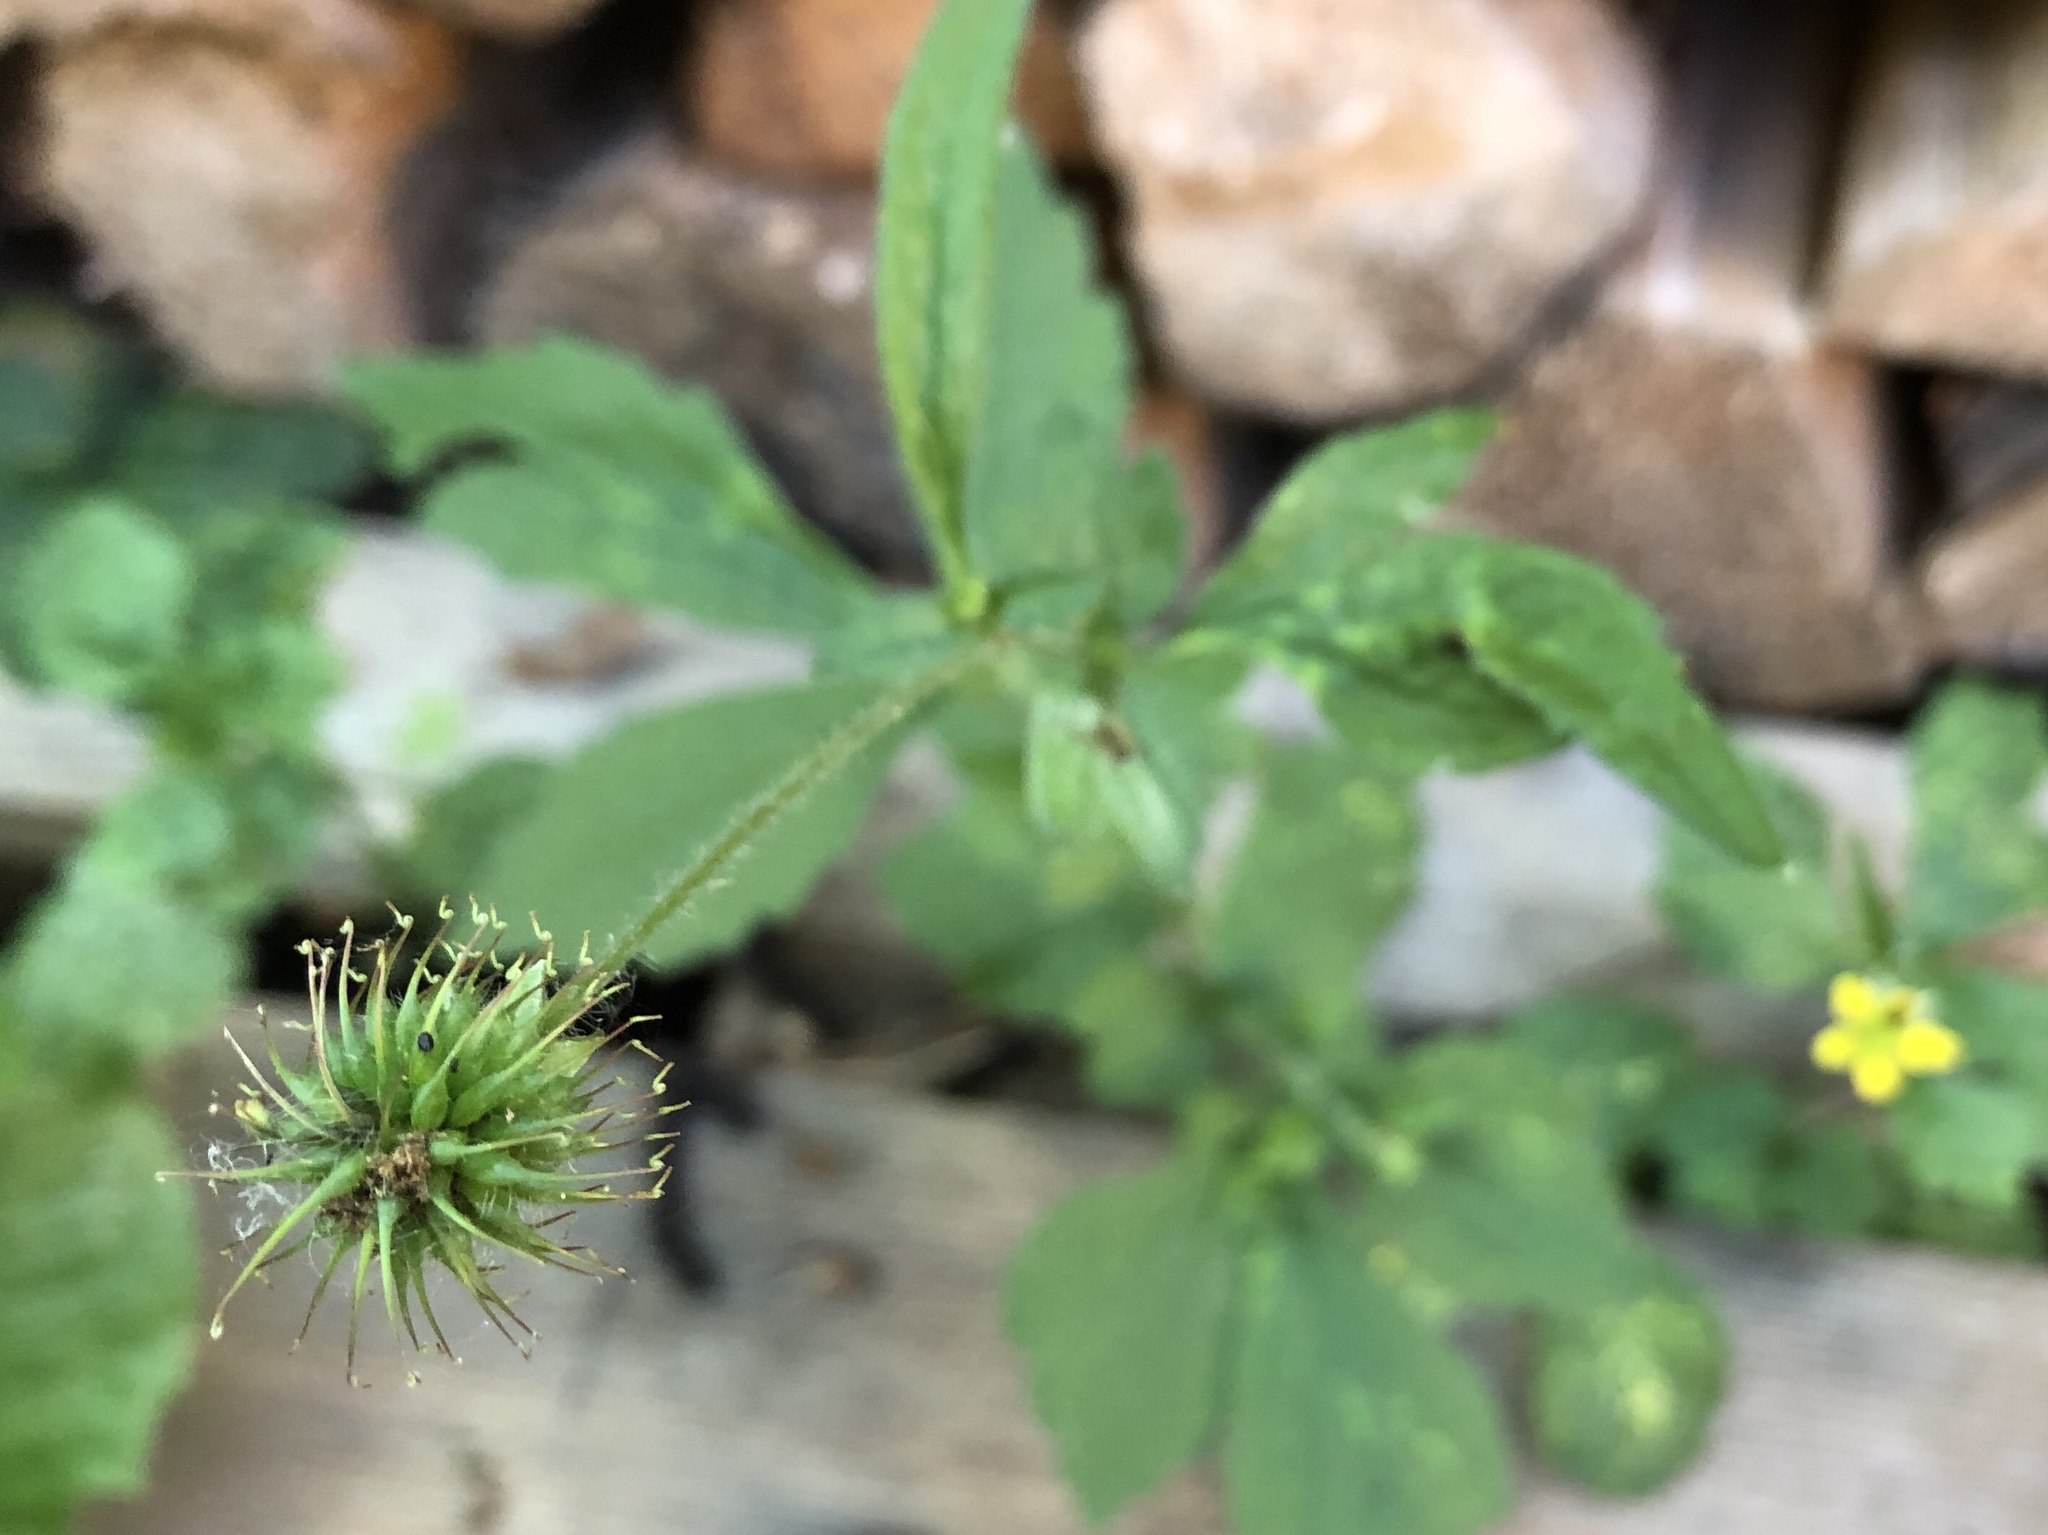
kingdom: Plantae
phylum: Tracheophyta
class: Magnoliopsida
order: Rosales
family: Rosaceae
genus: Geum
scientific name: Geum urbanum
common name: Wood avens
